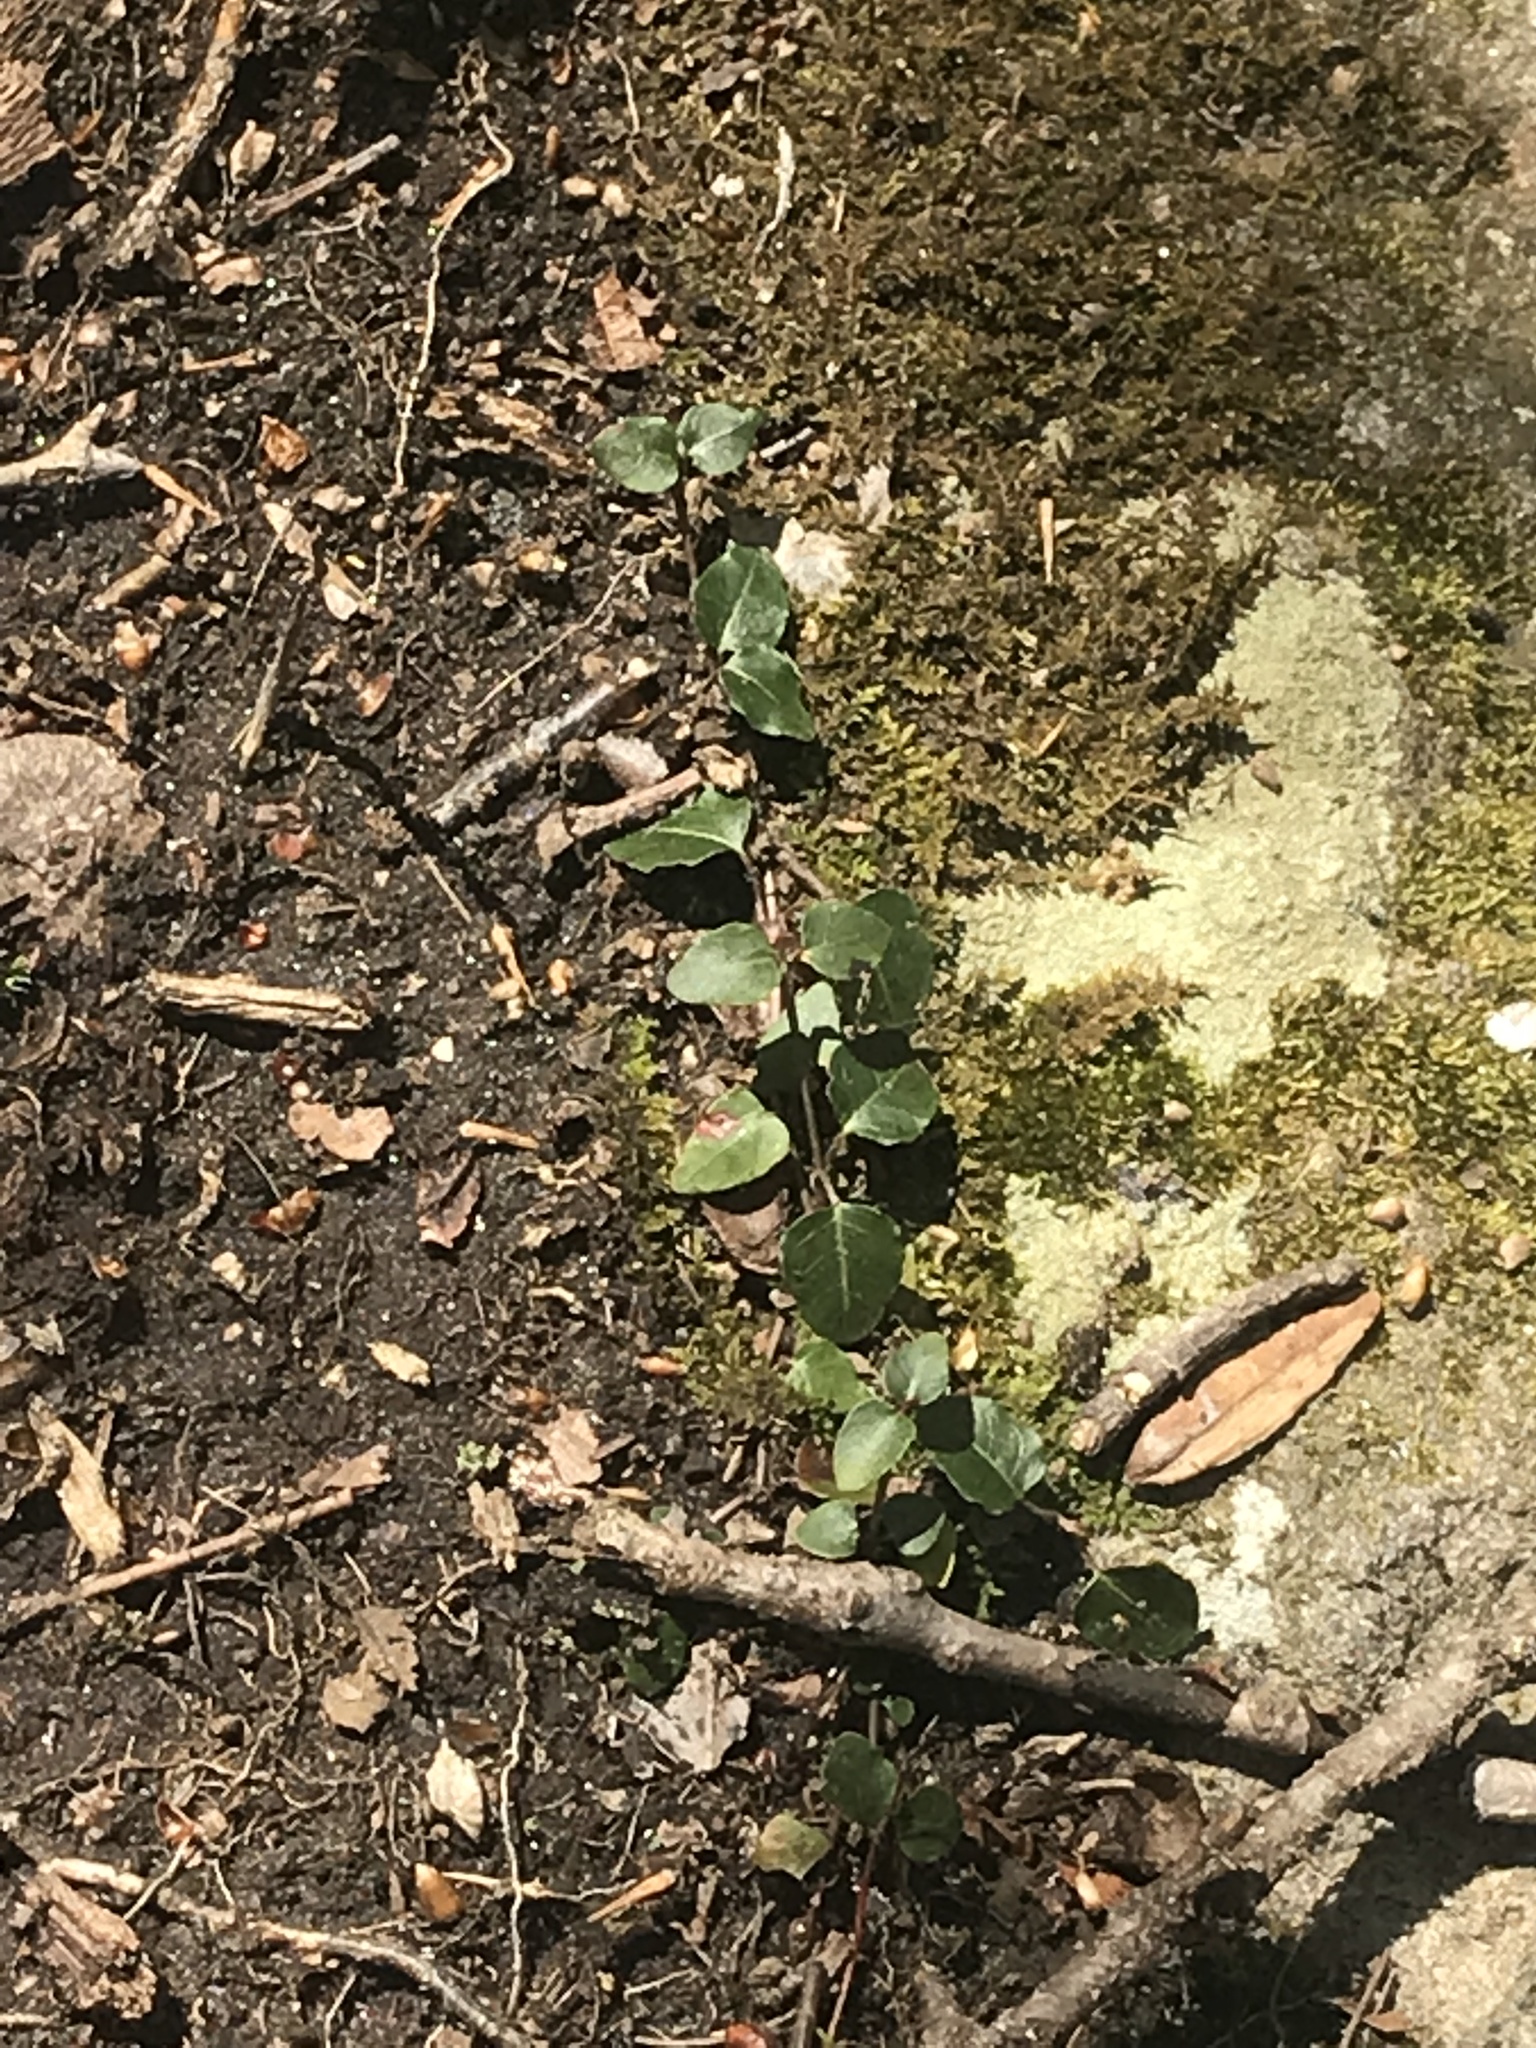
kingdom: Plantae
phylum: Tracheophyta
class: Magnoliopsida
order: Gentianales
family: Rubiaceae
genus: Mitchella
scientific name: Mitchella repens
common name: Partridge-berry
